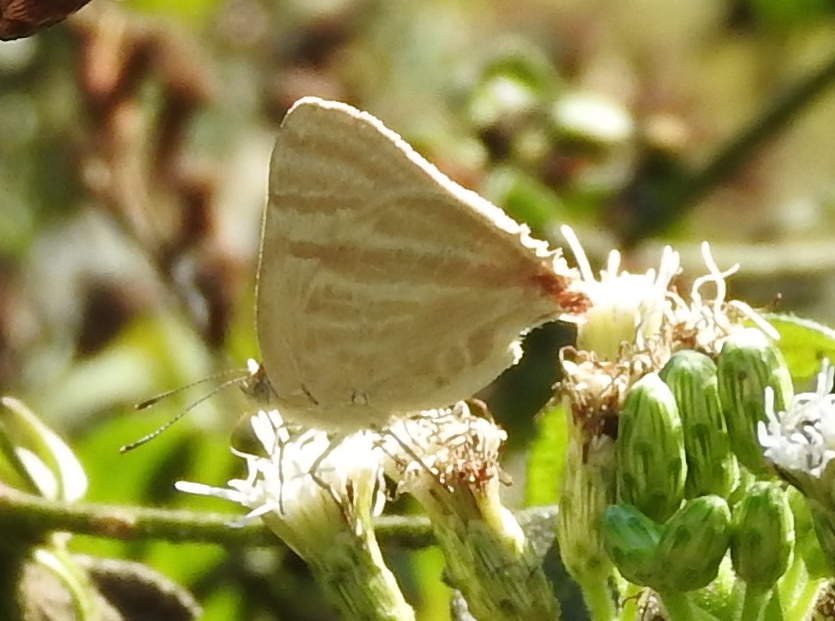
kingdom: Animalia
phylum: Arthropoda
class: Insecta
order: Lepidoptera
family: Lycaenidae
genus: Dolymorpha
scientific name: Dolymorpha jada
